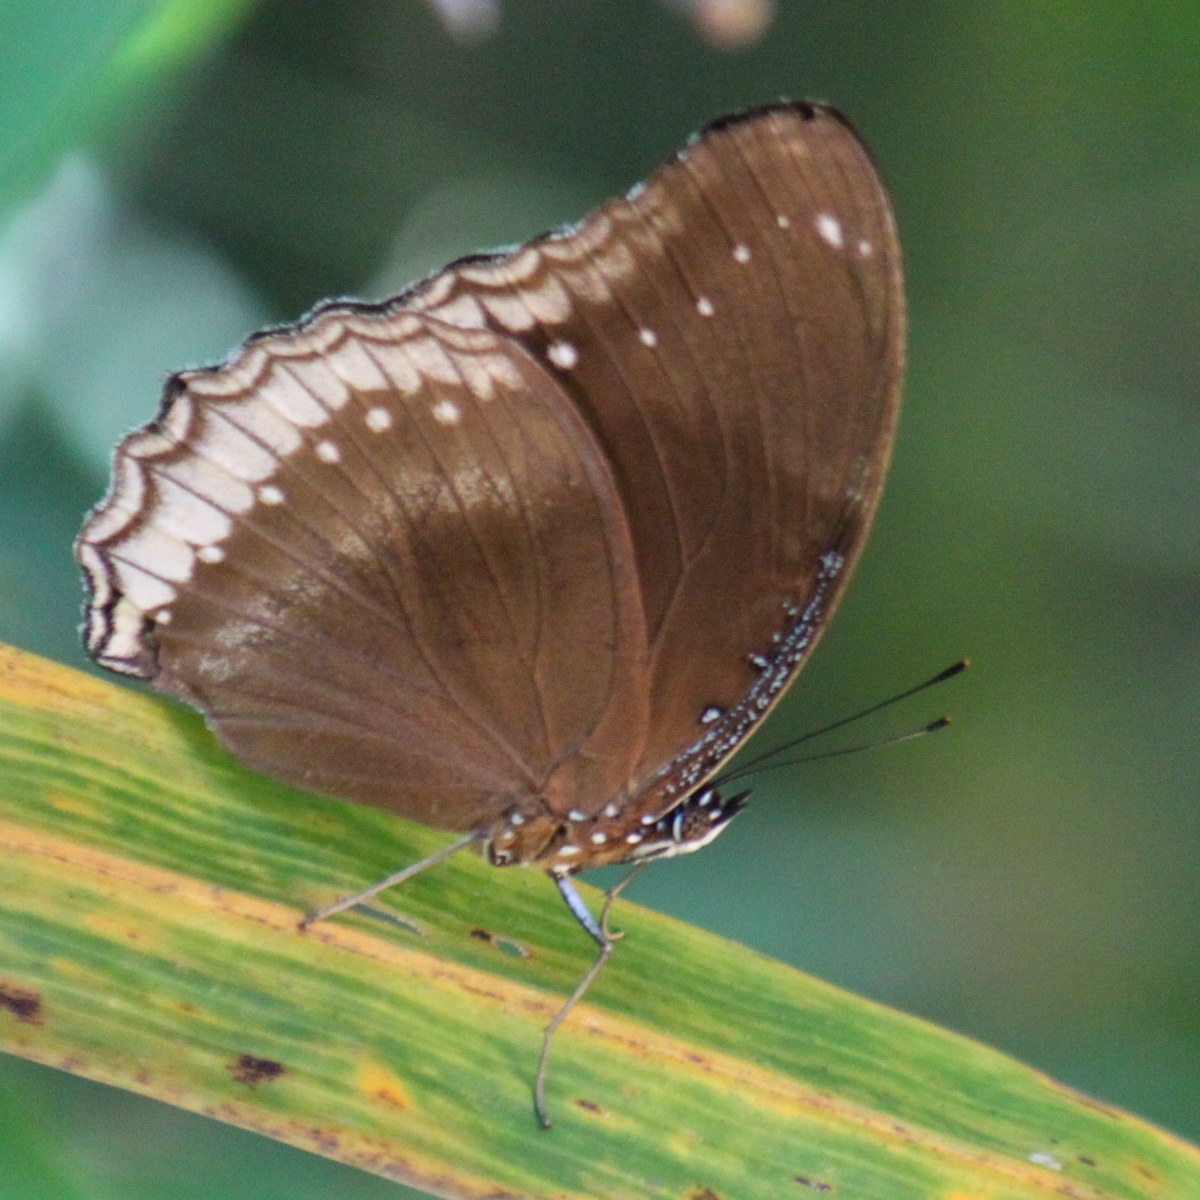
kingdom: Animalia
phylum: Arthropoda
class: Insecta
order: Lepidoptera
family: Nymphalidae
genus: Hypolimnas
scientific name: Hypolimnas bolina
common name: Great eggfly
